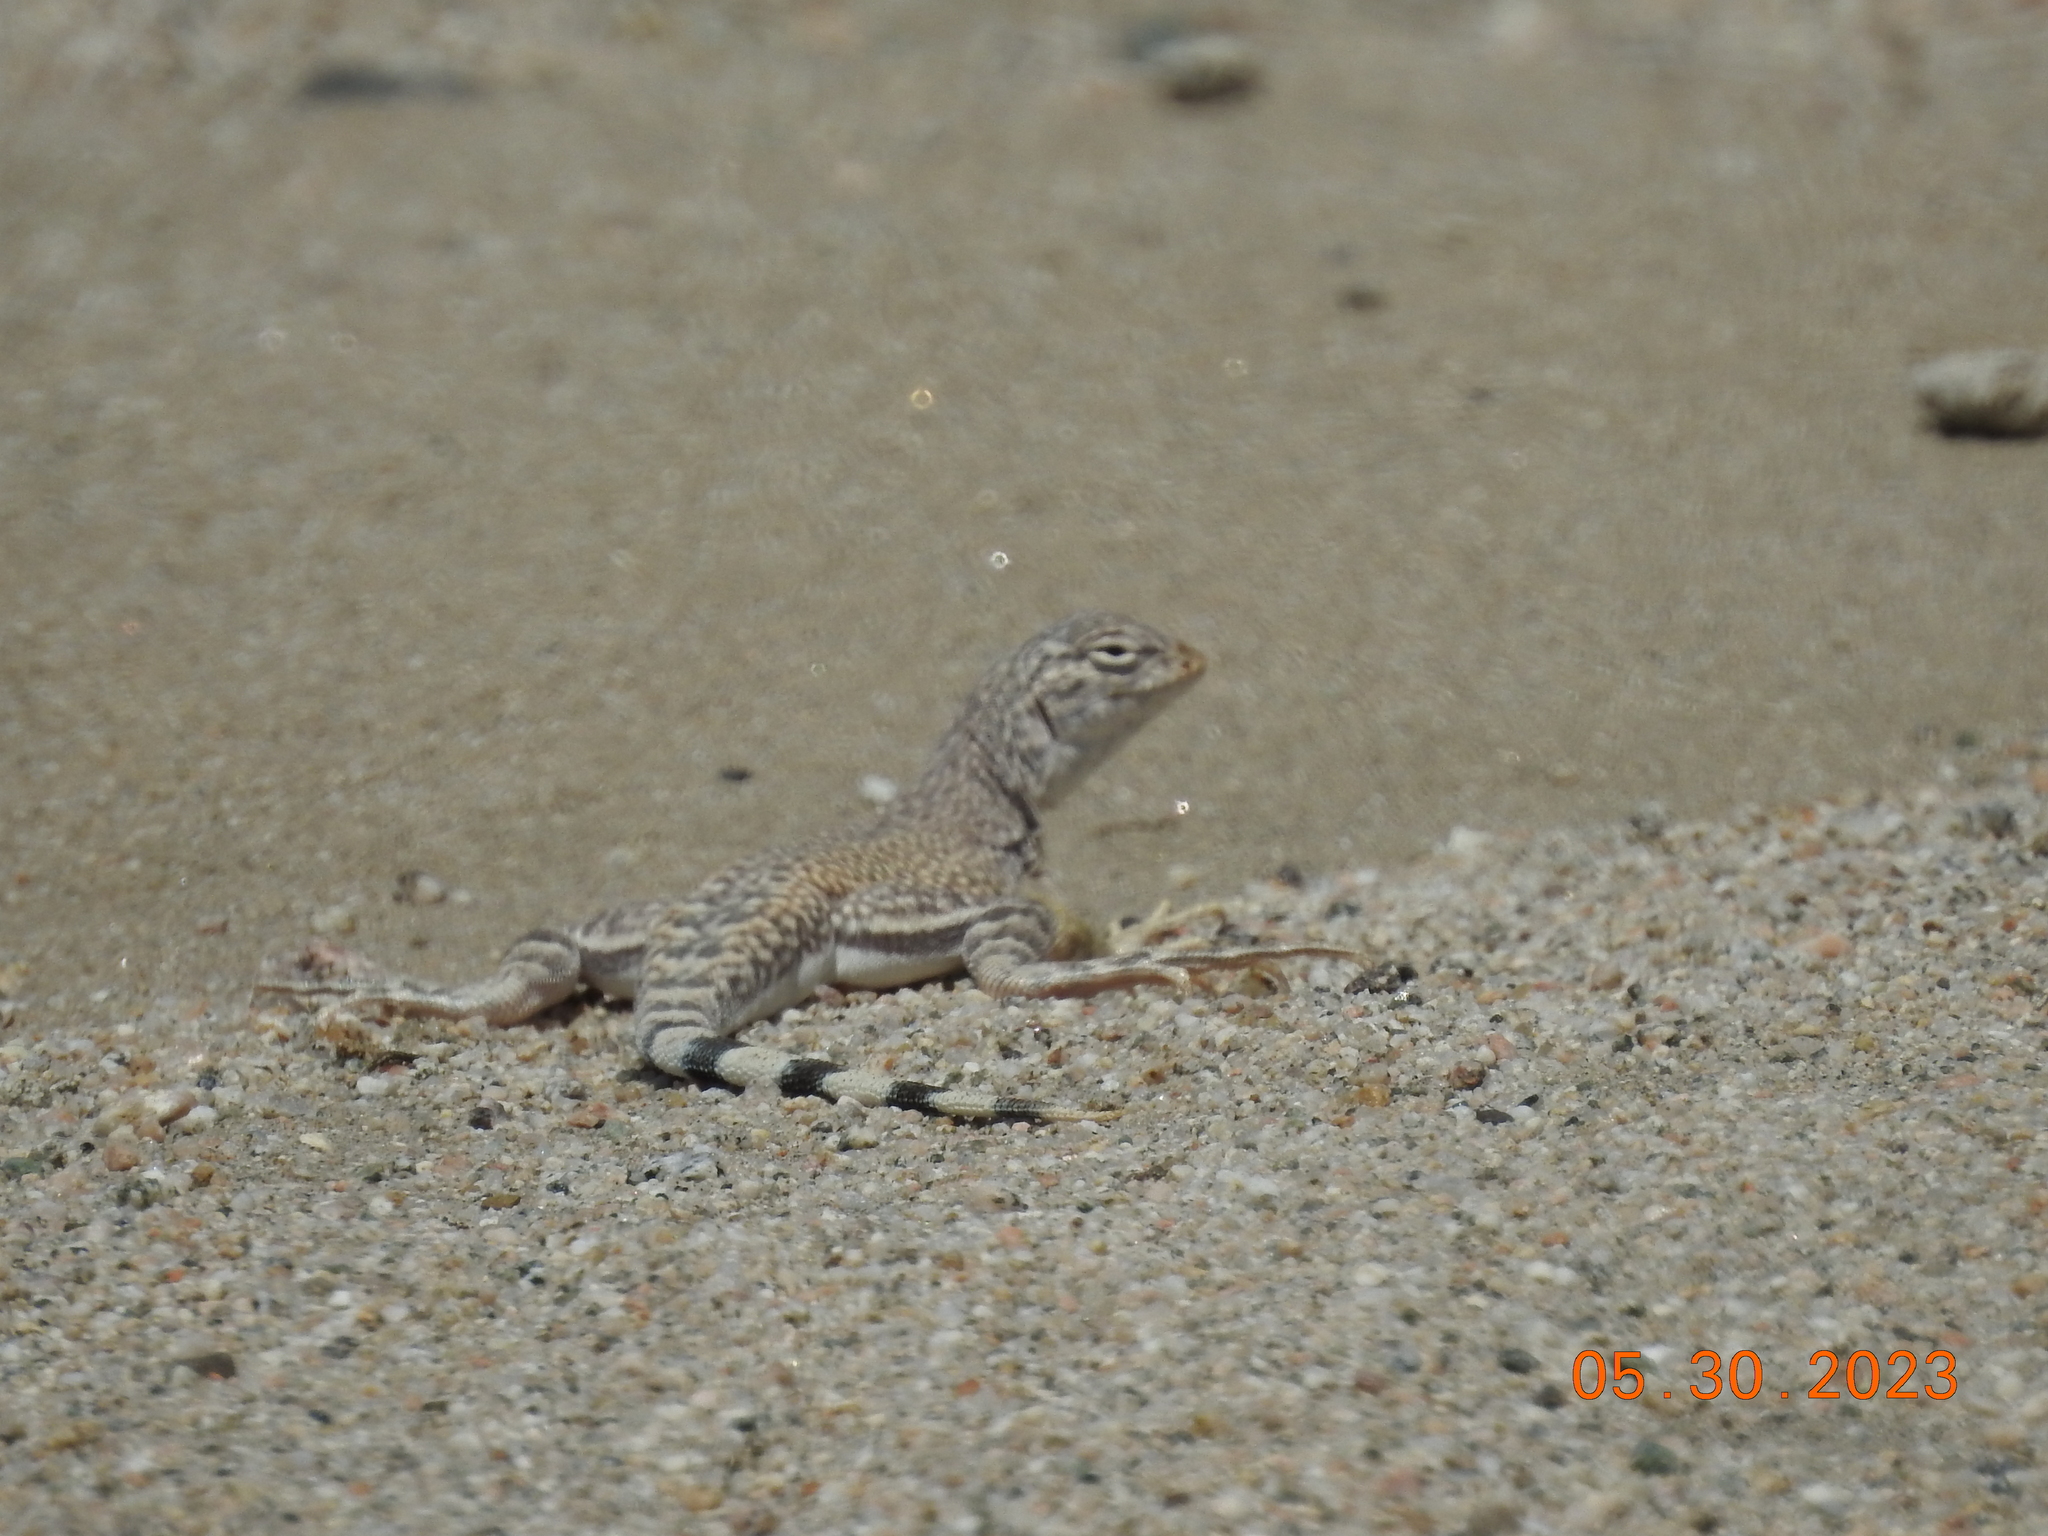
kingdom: Animalia
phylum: Chordata
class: Squamata
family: Phrynosomatidae
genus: Callisaurus
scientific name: Callisaurus draconoides
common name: Zebra-tailed lizard
